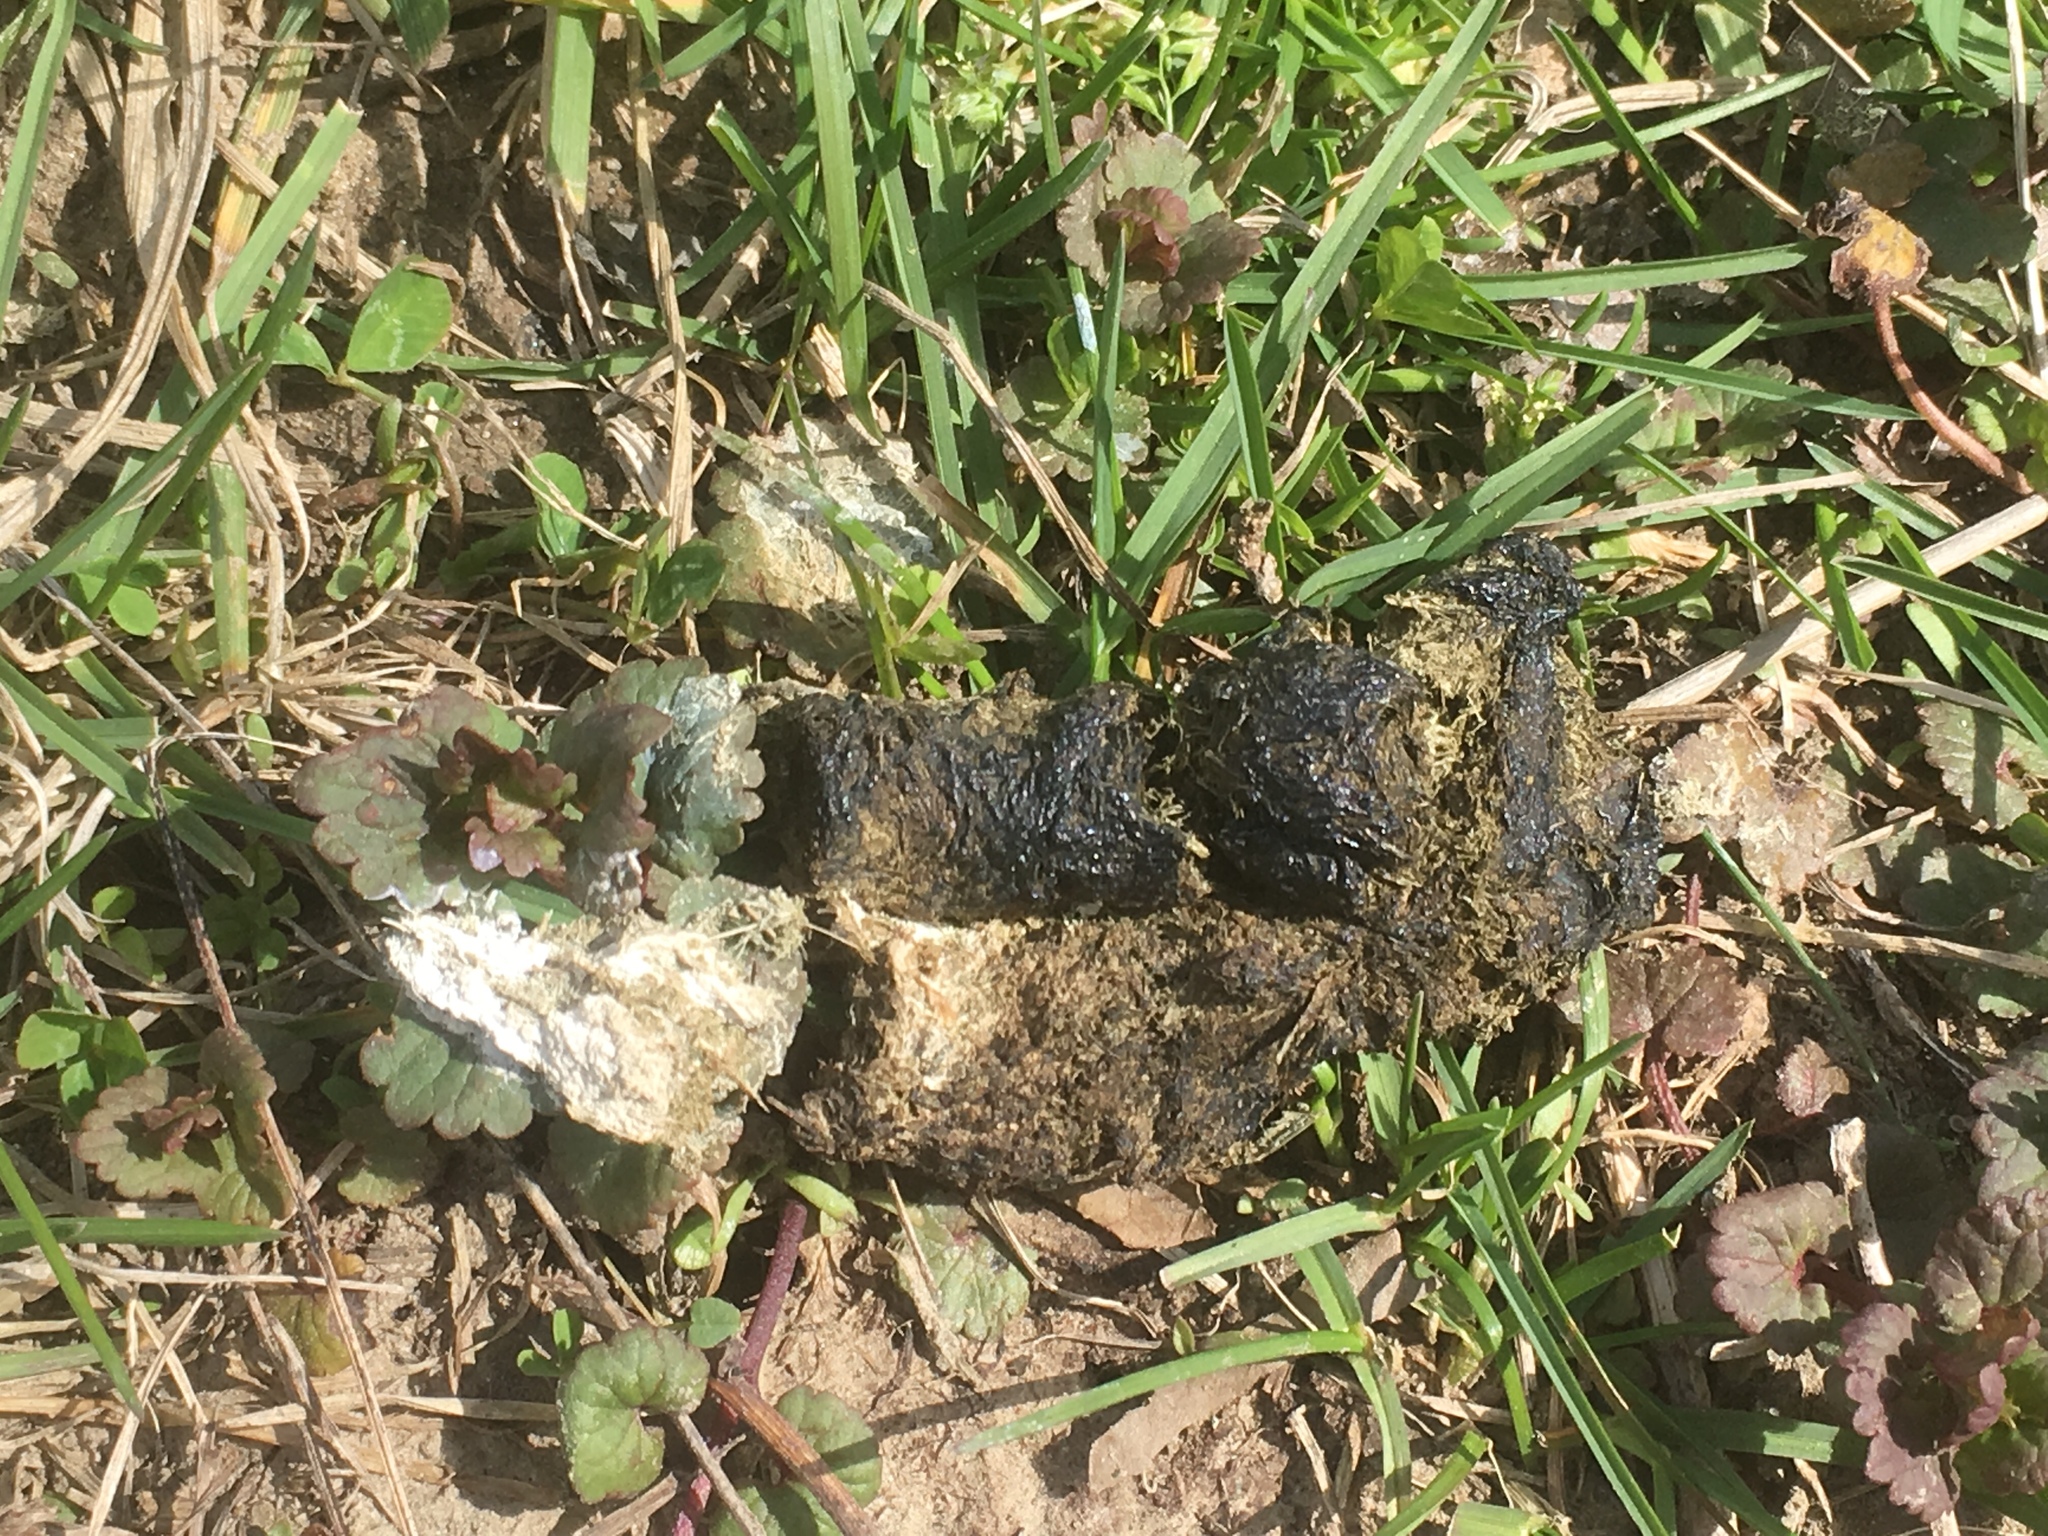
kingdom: Animalia
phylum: Chordata
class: Aves
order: Anseriformes
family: Anatidae
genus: Branta
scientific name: Branta canadensis
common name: Canada goose
